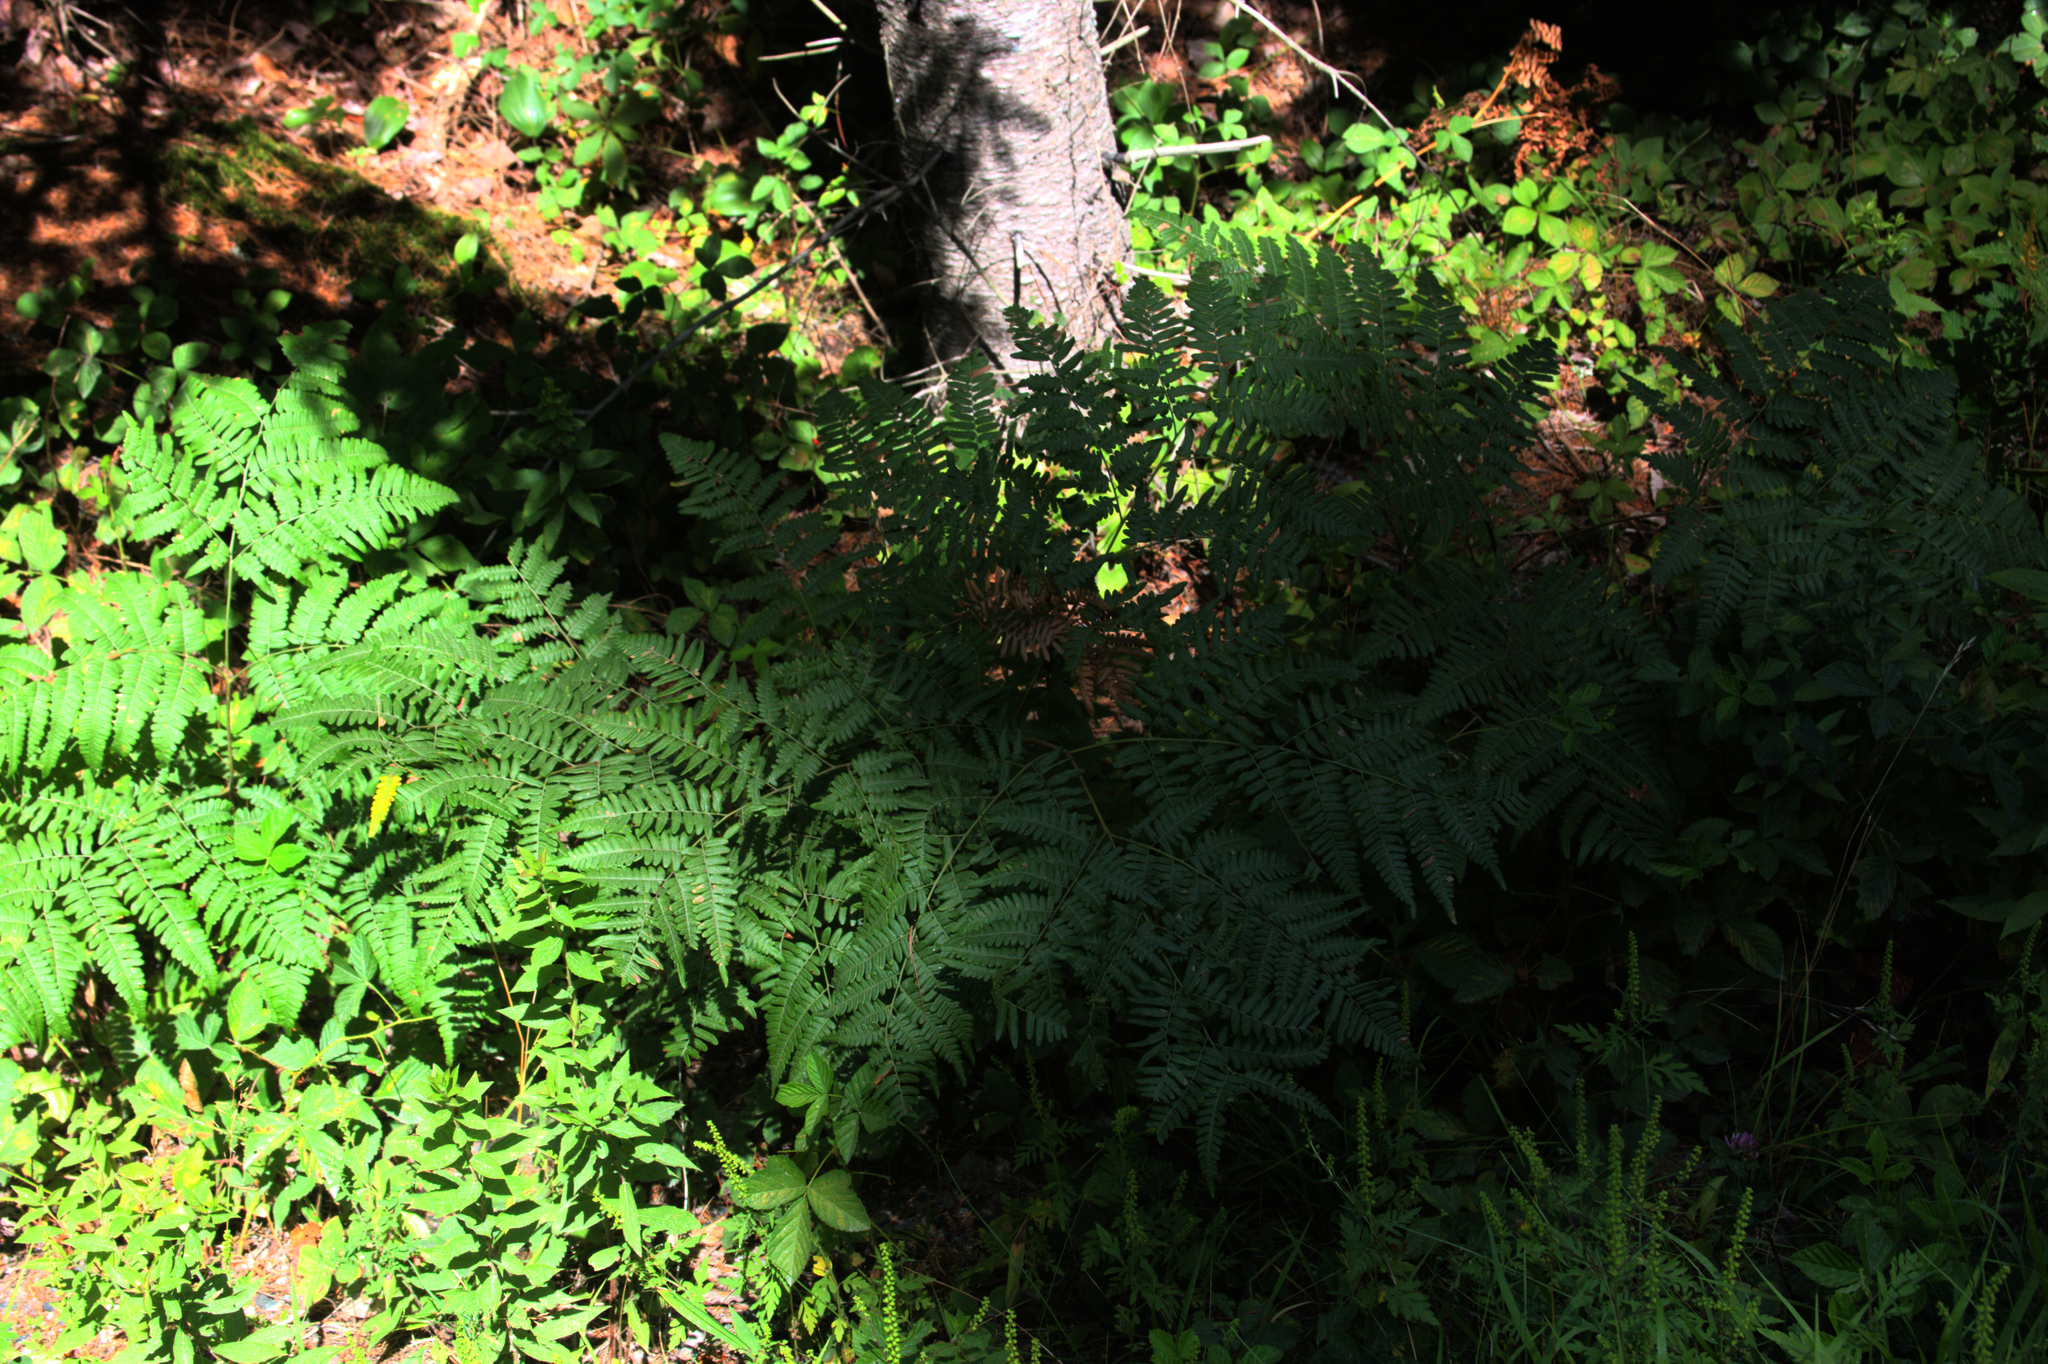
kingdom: Plantae
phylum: Tracheophyta
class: Polypodiopsida
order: Polypodiales
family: Dennstaedtiaceae
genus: Pteridium
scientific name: Pteridium aquilinum
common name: Bracken
